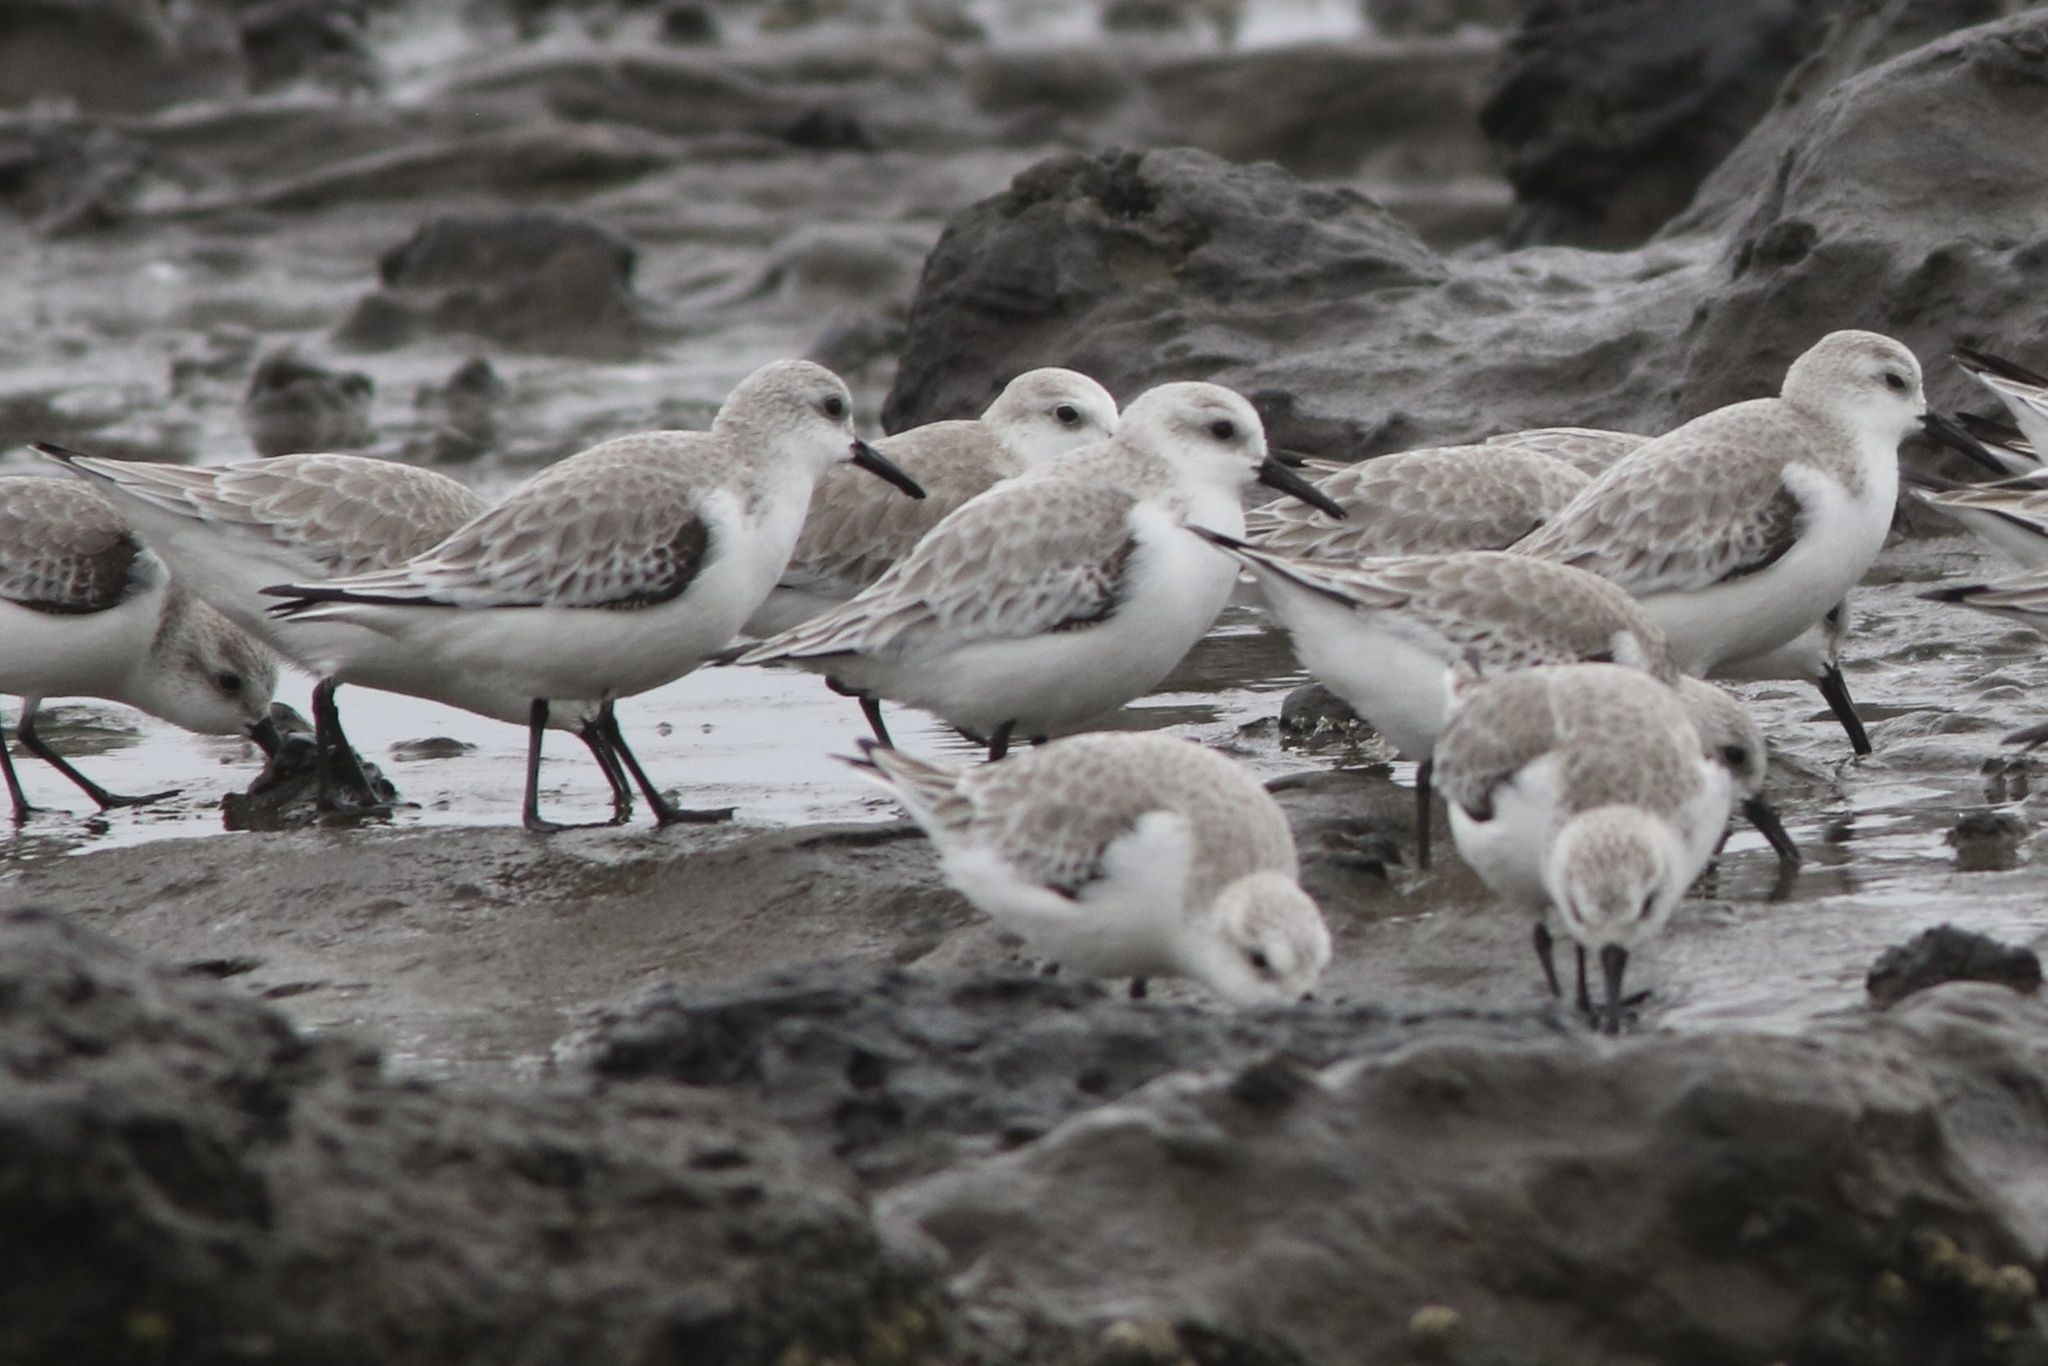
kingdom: Animalia
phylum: Chordata
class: Aves
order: Charadriiformes
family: Scolopacidae
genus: Calidris
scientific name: Calidris alba
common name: Sanderling
